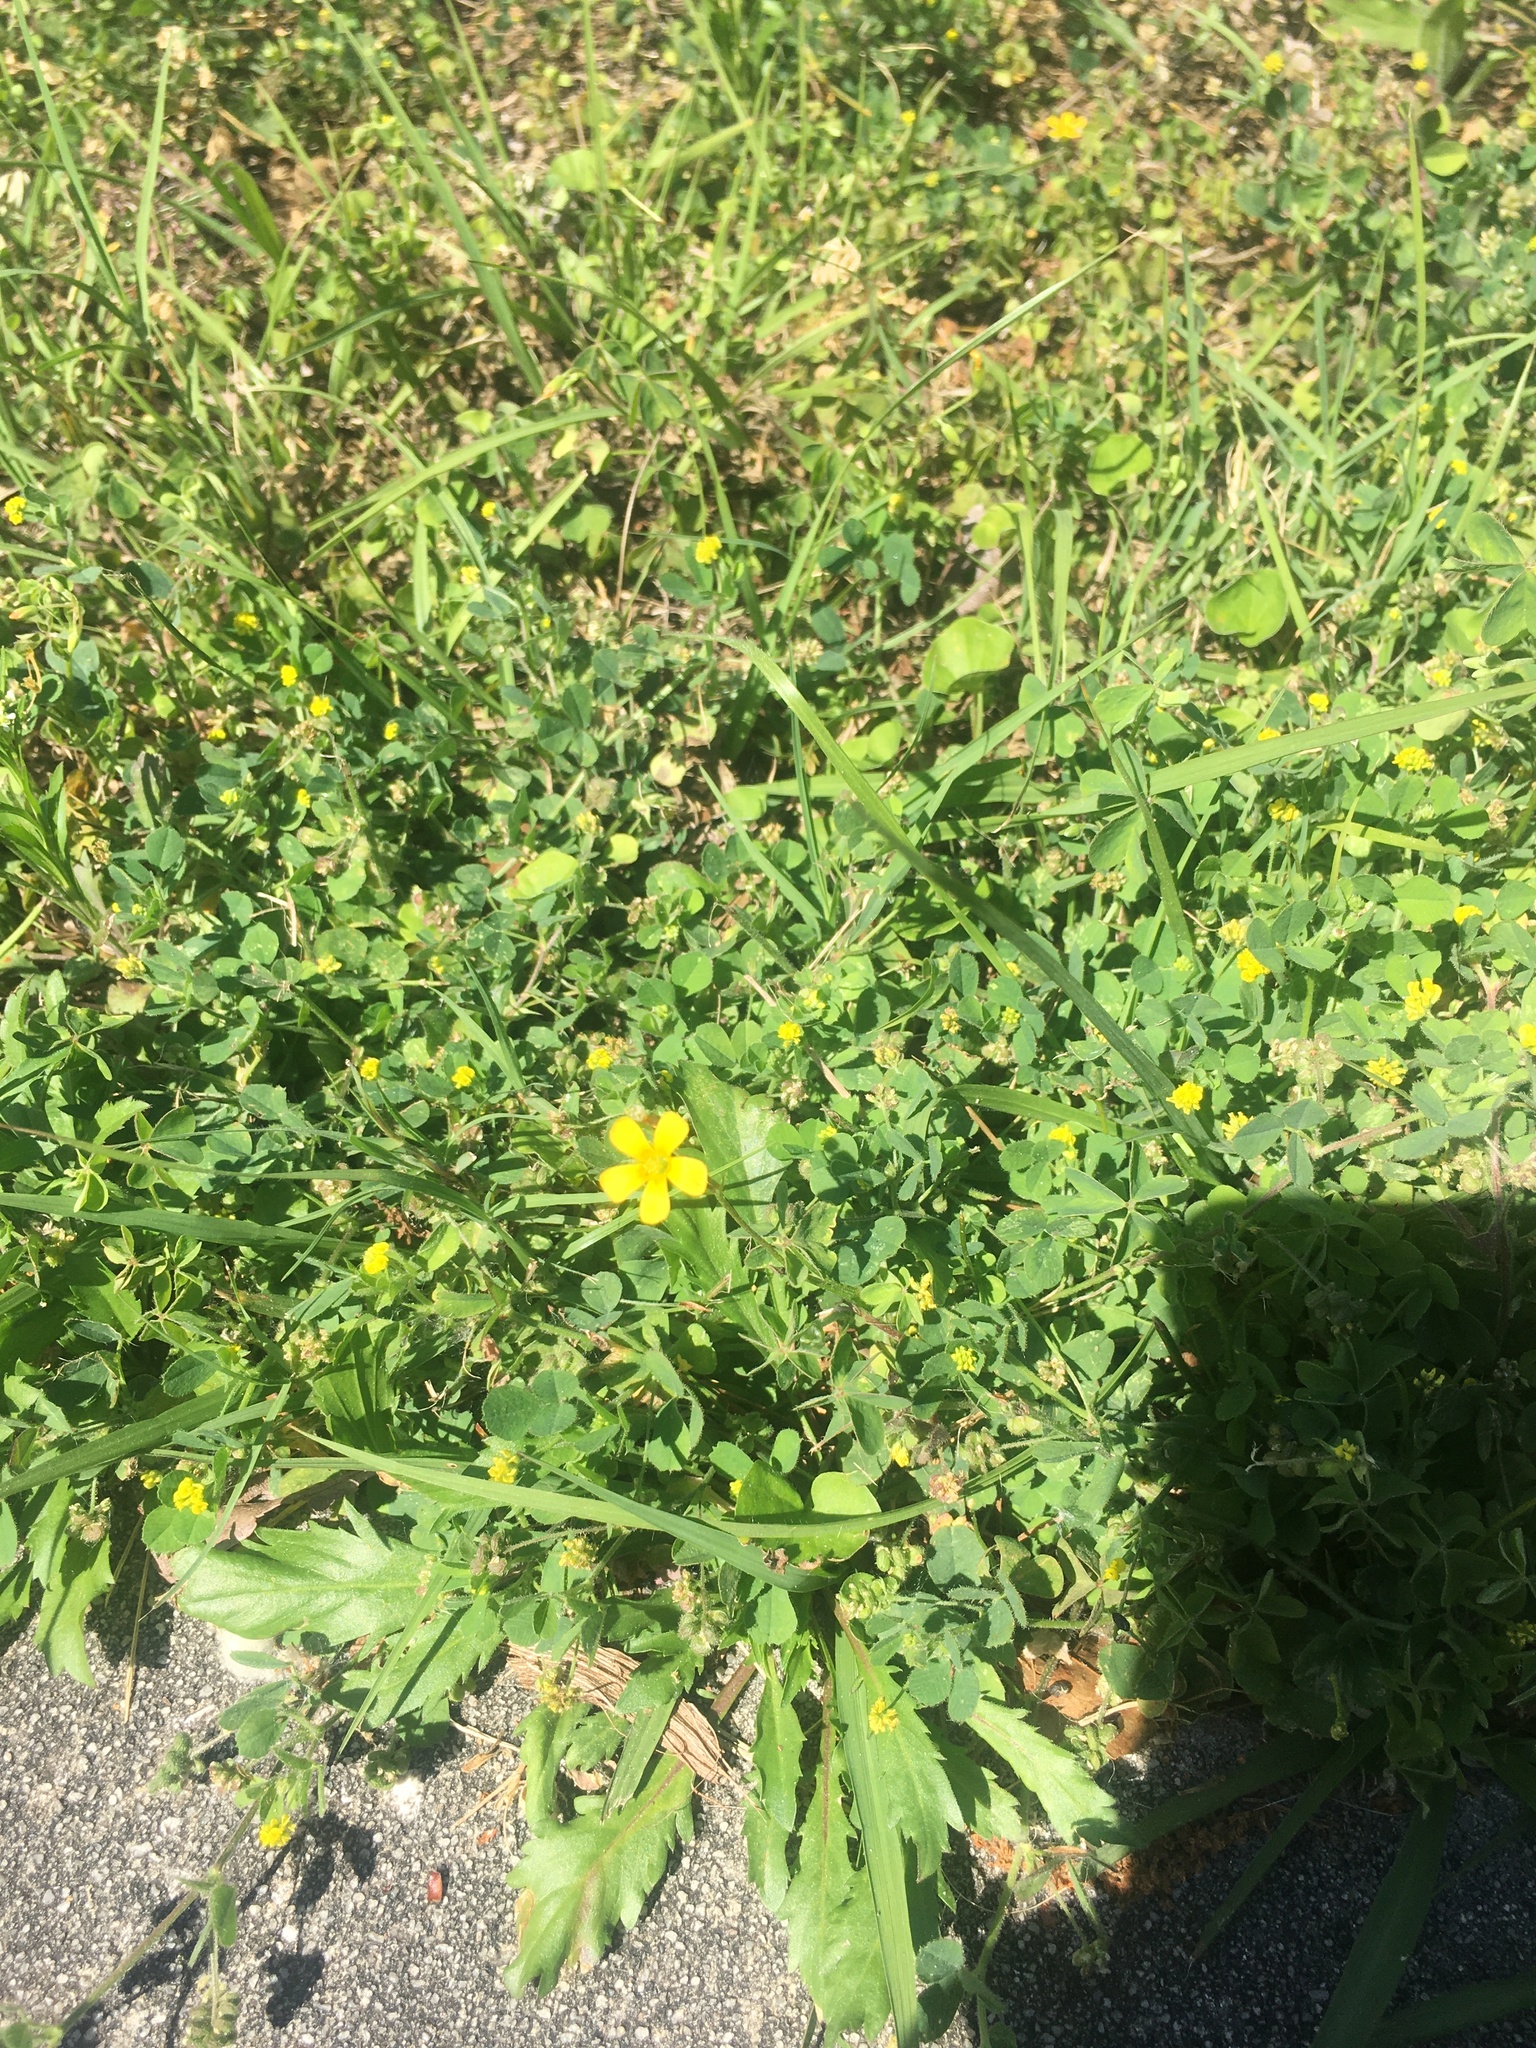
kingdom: Plantae
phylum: Tracheophyta
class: Magnoliopsida
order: Oxalidales
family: Oxalidaceae
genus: Oxalis
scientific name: Oxalis corniculata
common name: Procumbent yellow-sorrel
